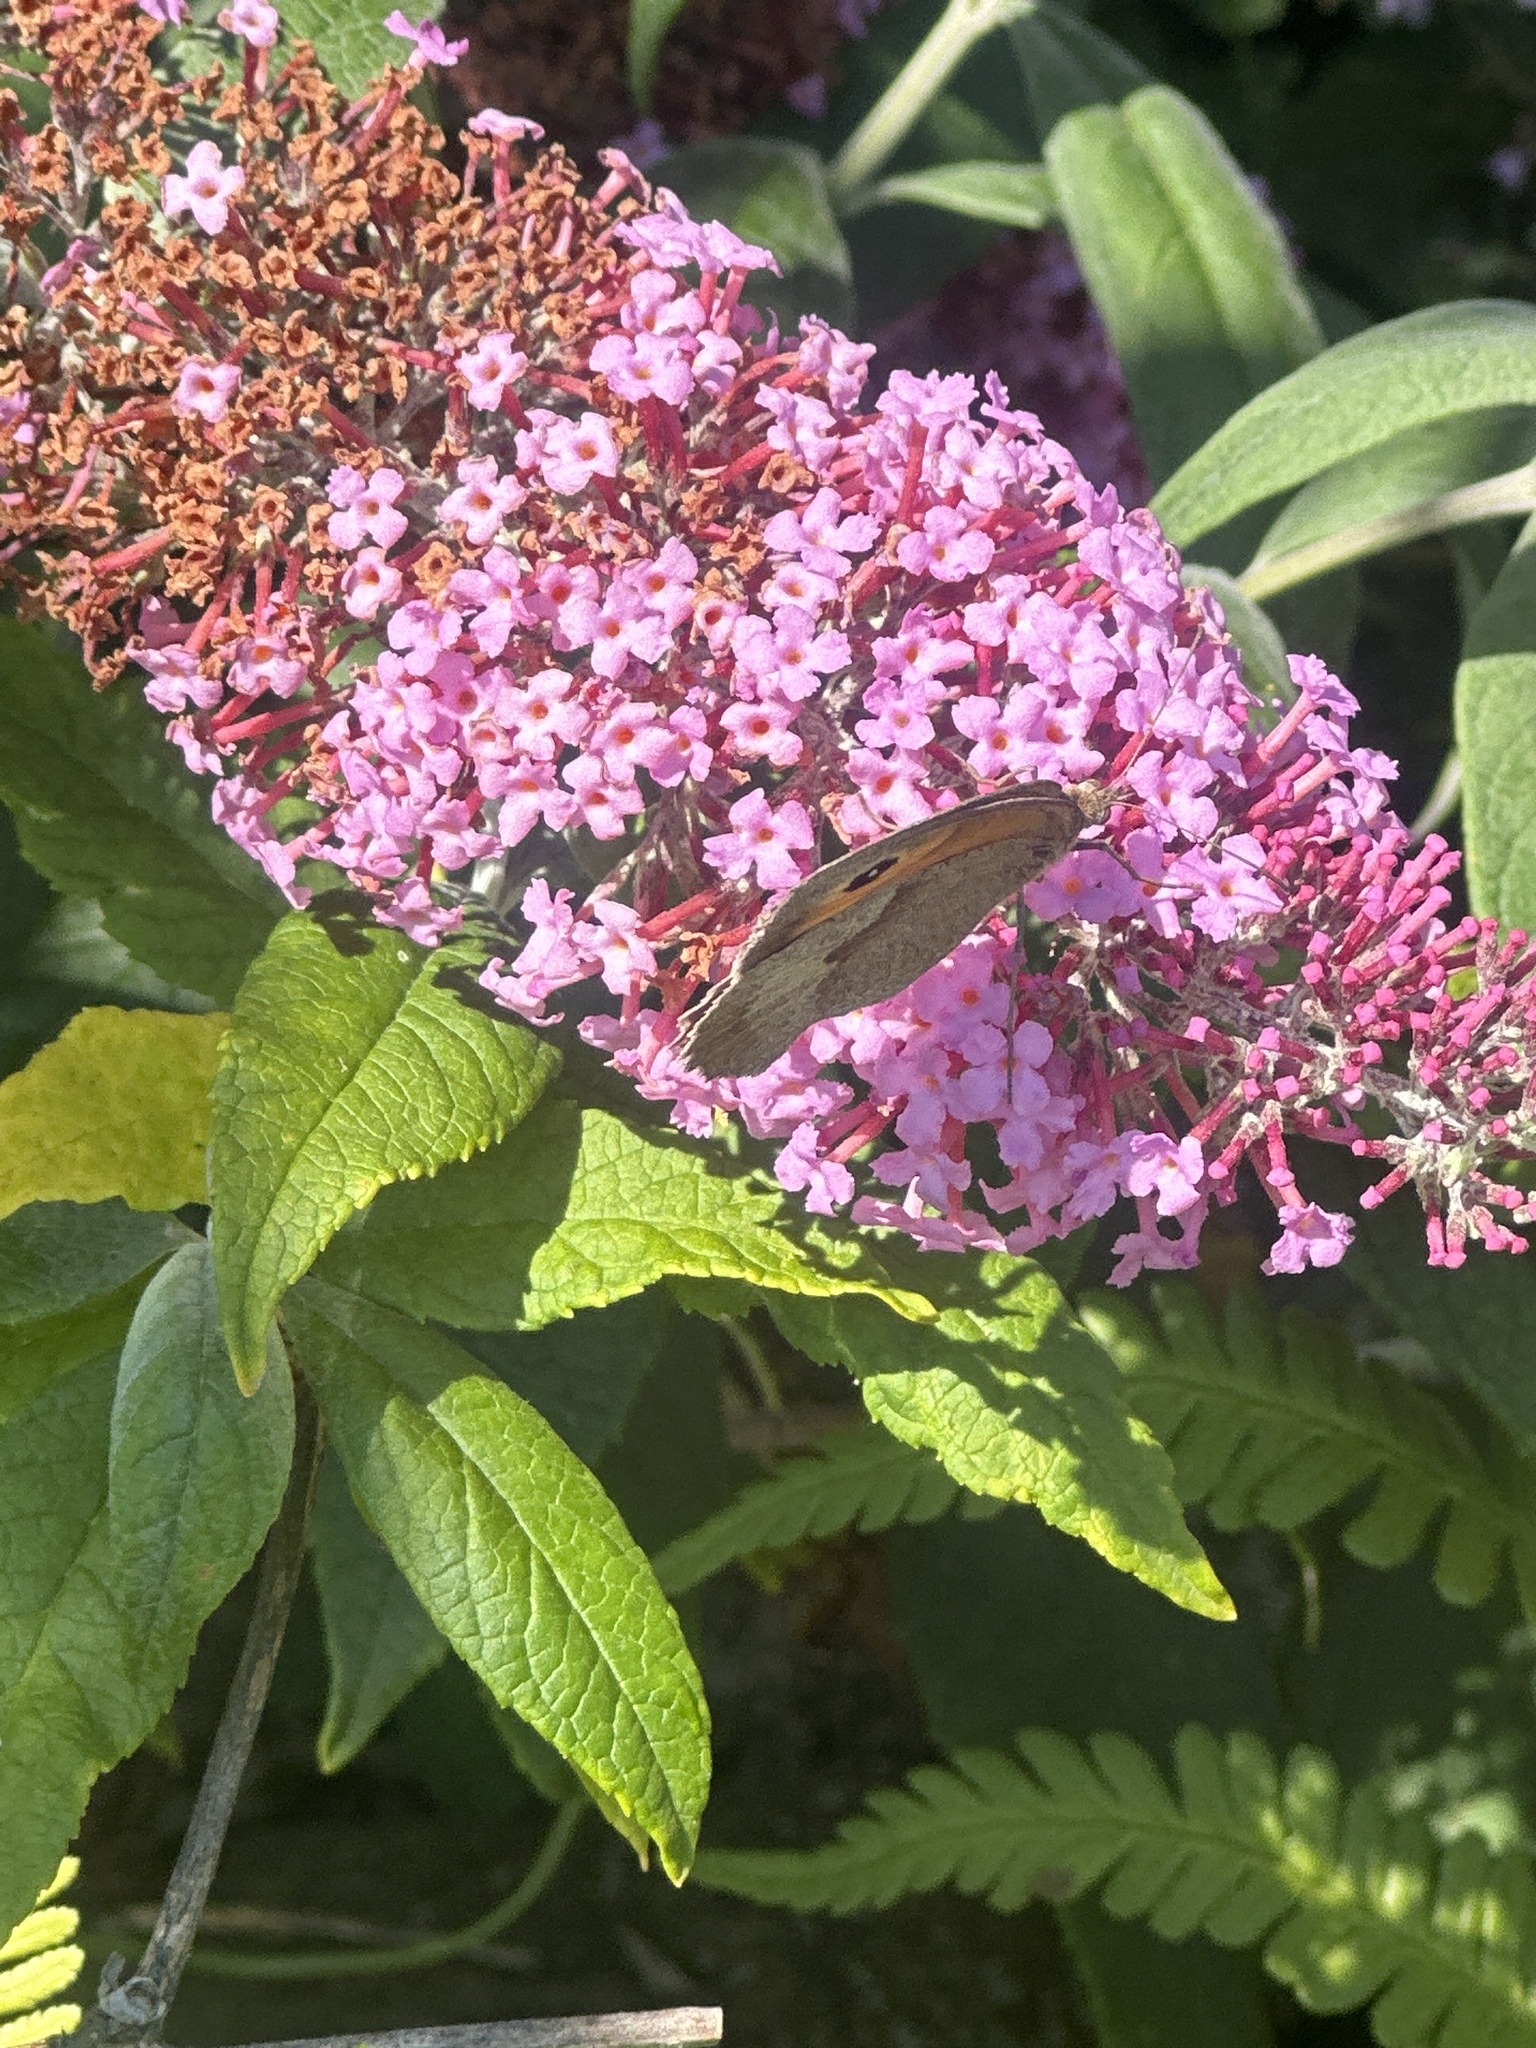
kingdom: Animalia
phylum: Arthropoda
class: Insecta
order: Lepidoptera
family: Nymphalidae
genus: Maniola
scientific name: Maniola jurtina
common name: Meadow brown
